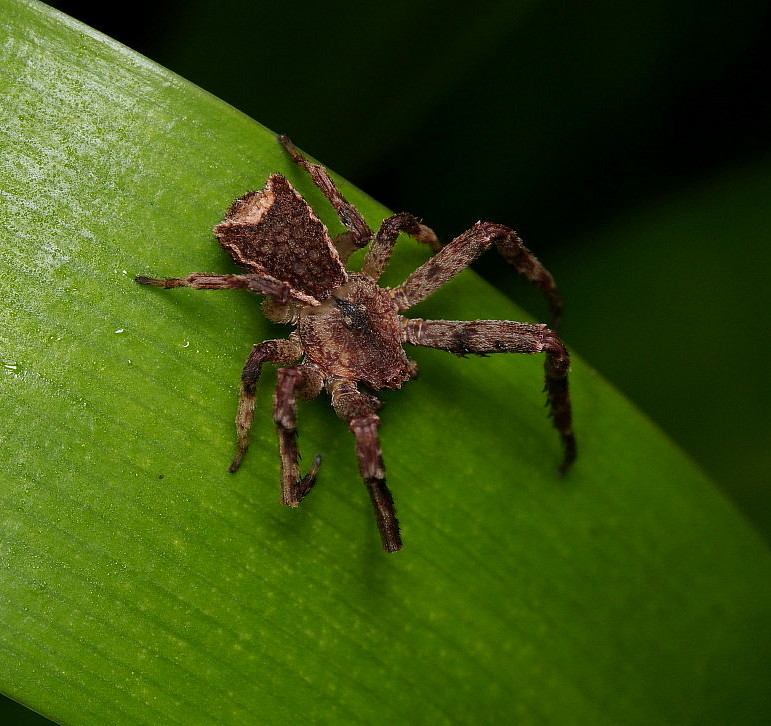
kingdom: Animalia
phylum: Arthropoda
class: Arachnida
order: Araneae
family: Thomisidae
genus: Sidymella
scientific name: Sidymella angularis
